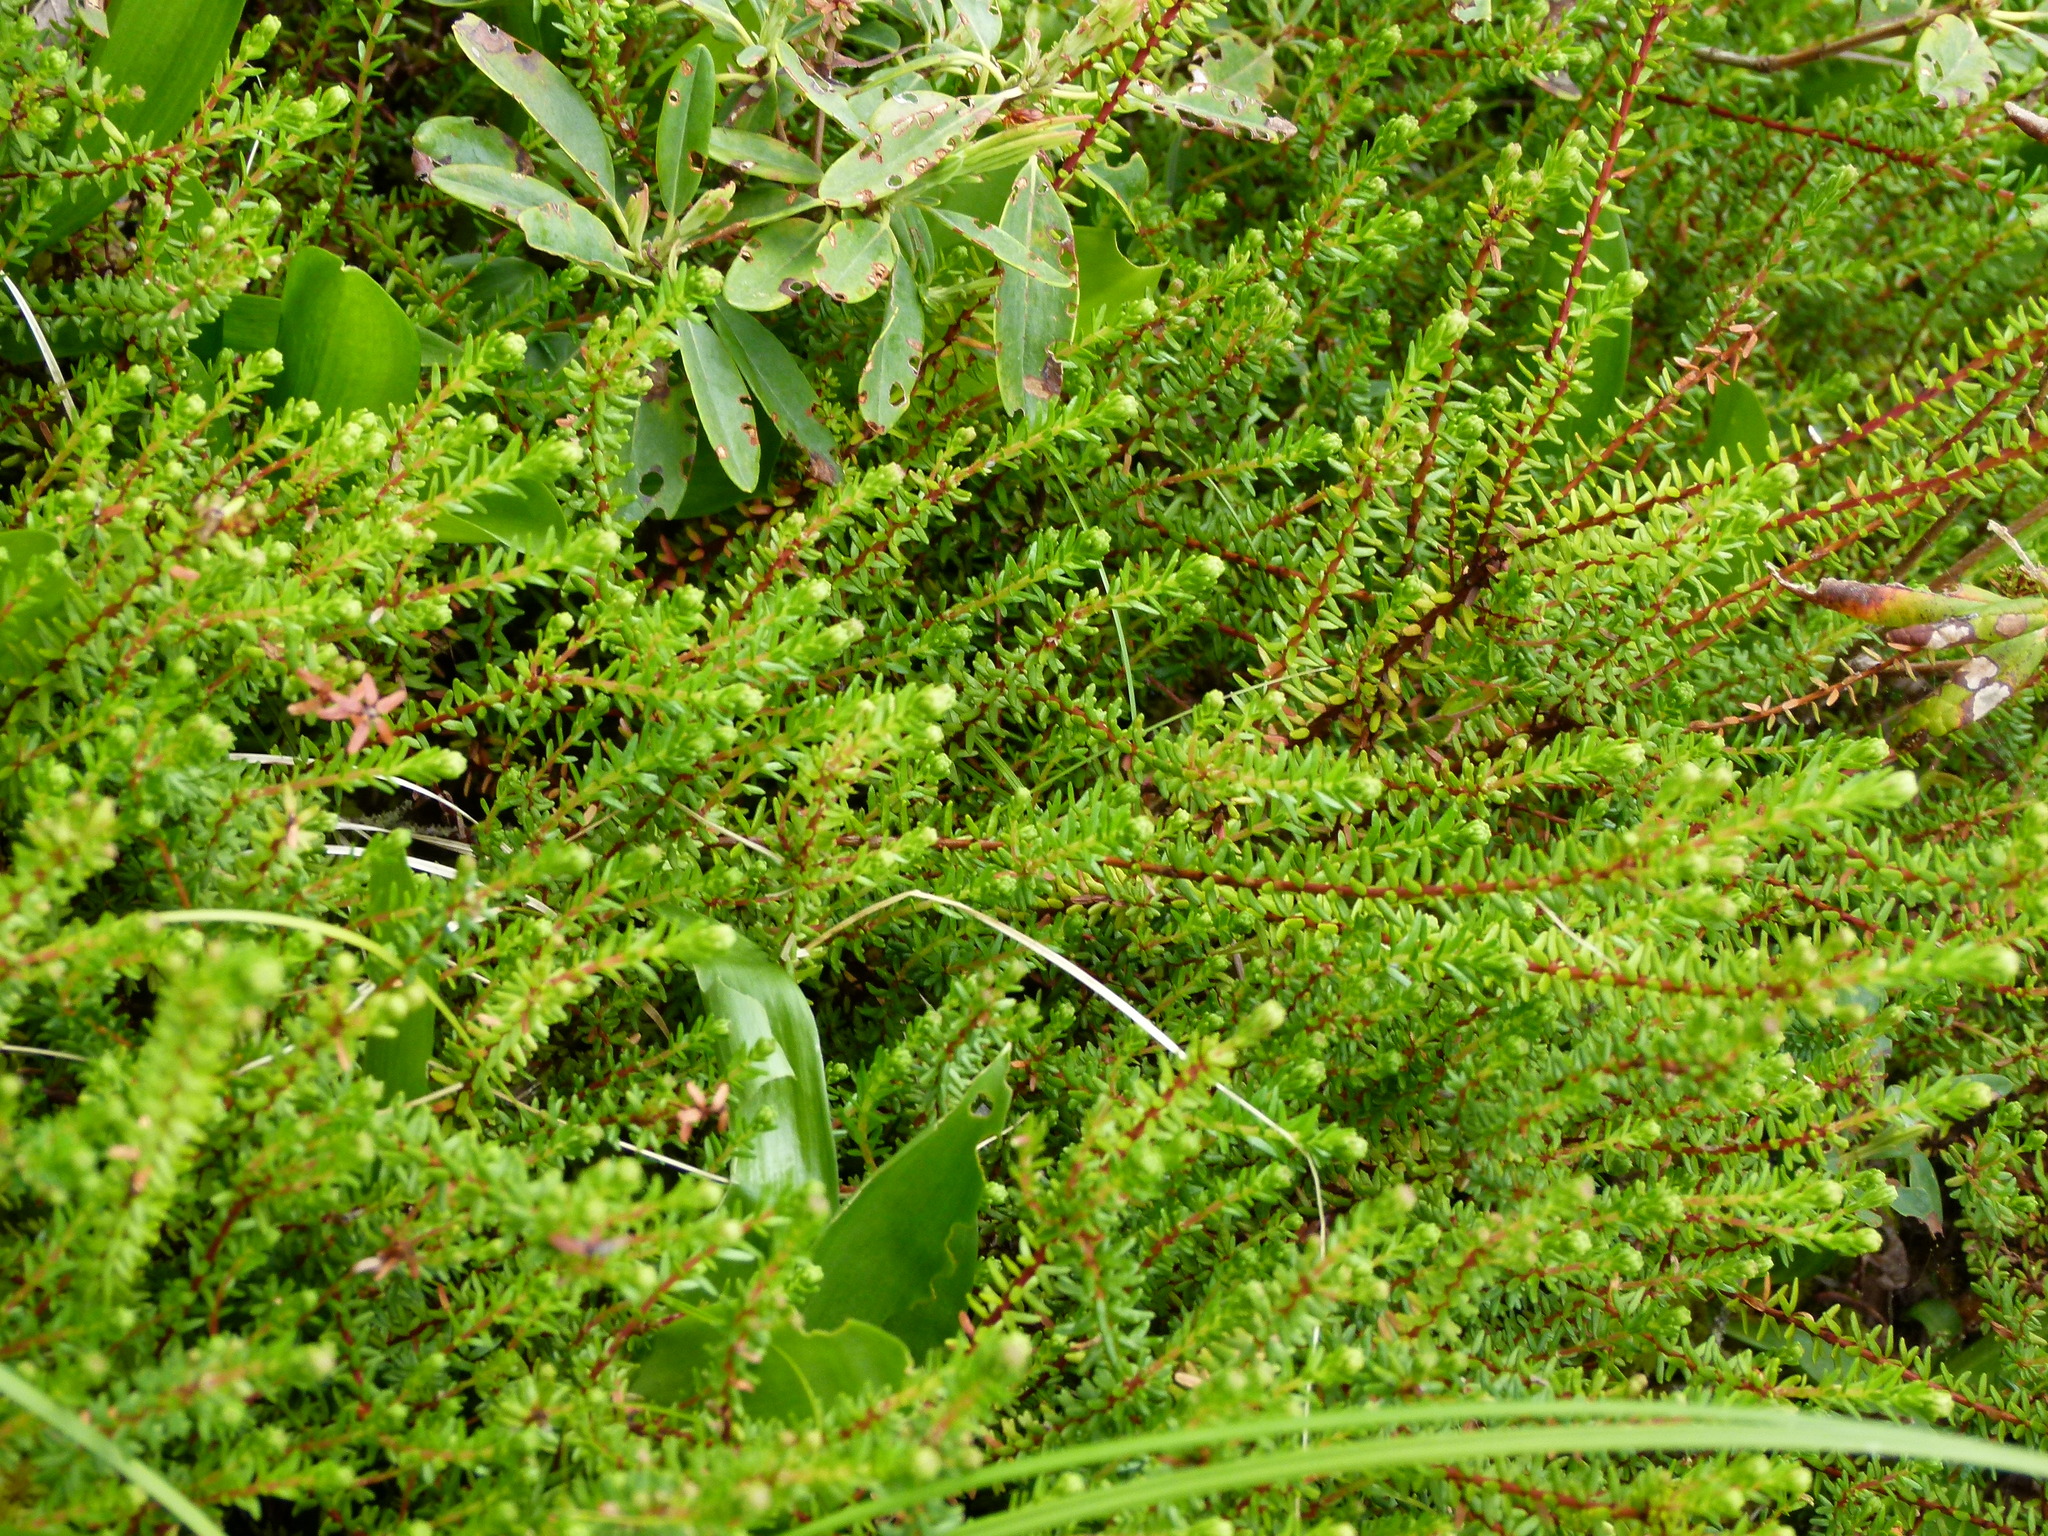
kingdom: Plantae
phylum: Tracheophyta
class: Magnoliopsida
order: Ericales
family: Ericaceae
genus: Empetrum
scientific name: Empetrum nigrum
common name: Black crowberry
